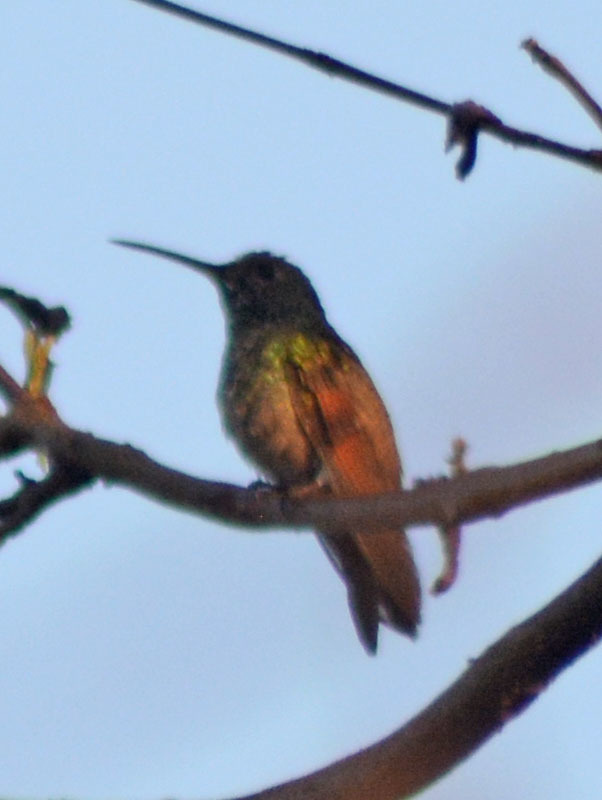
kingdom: Animalia
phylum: Chordata
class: Aves
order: Apodiformes
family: Trochilidae
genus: Saucerottia
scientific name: Saucerottia beryllina
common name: Berylline hummingbird
